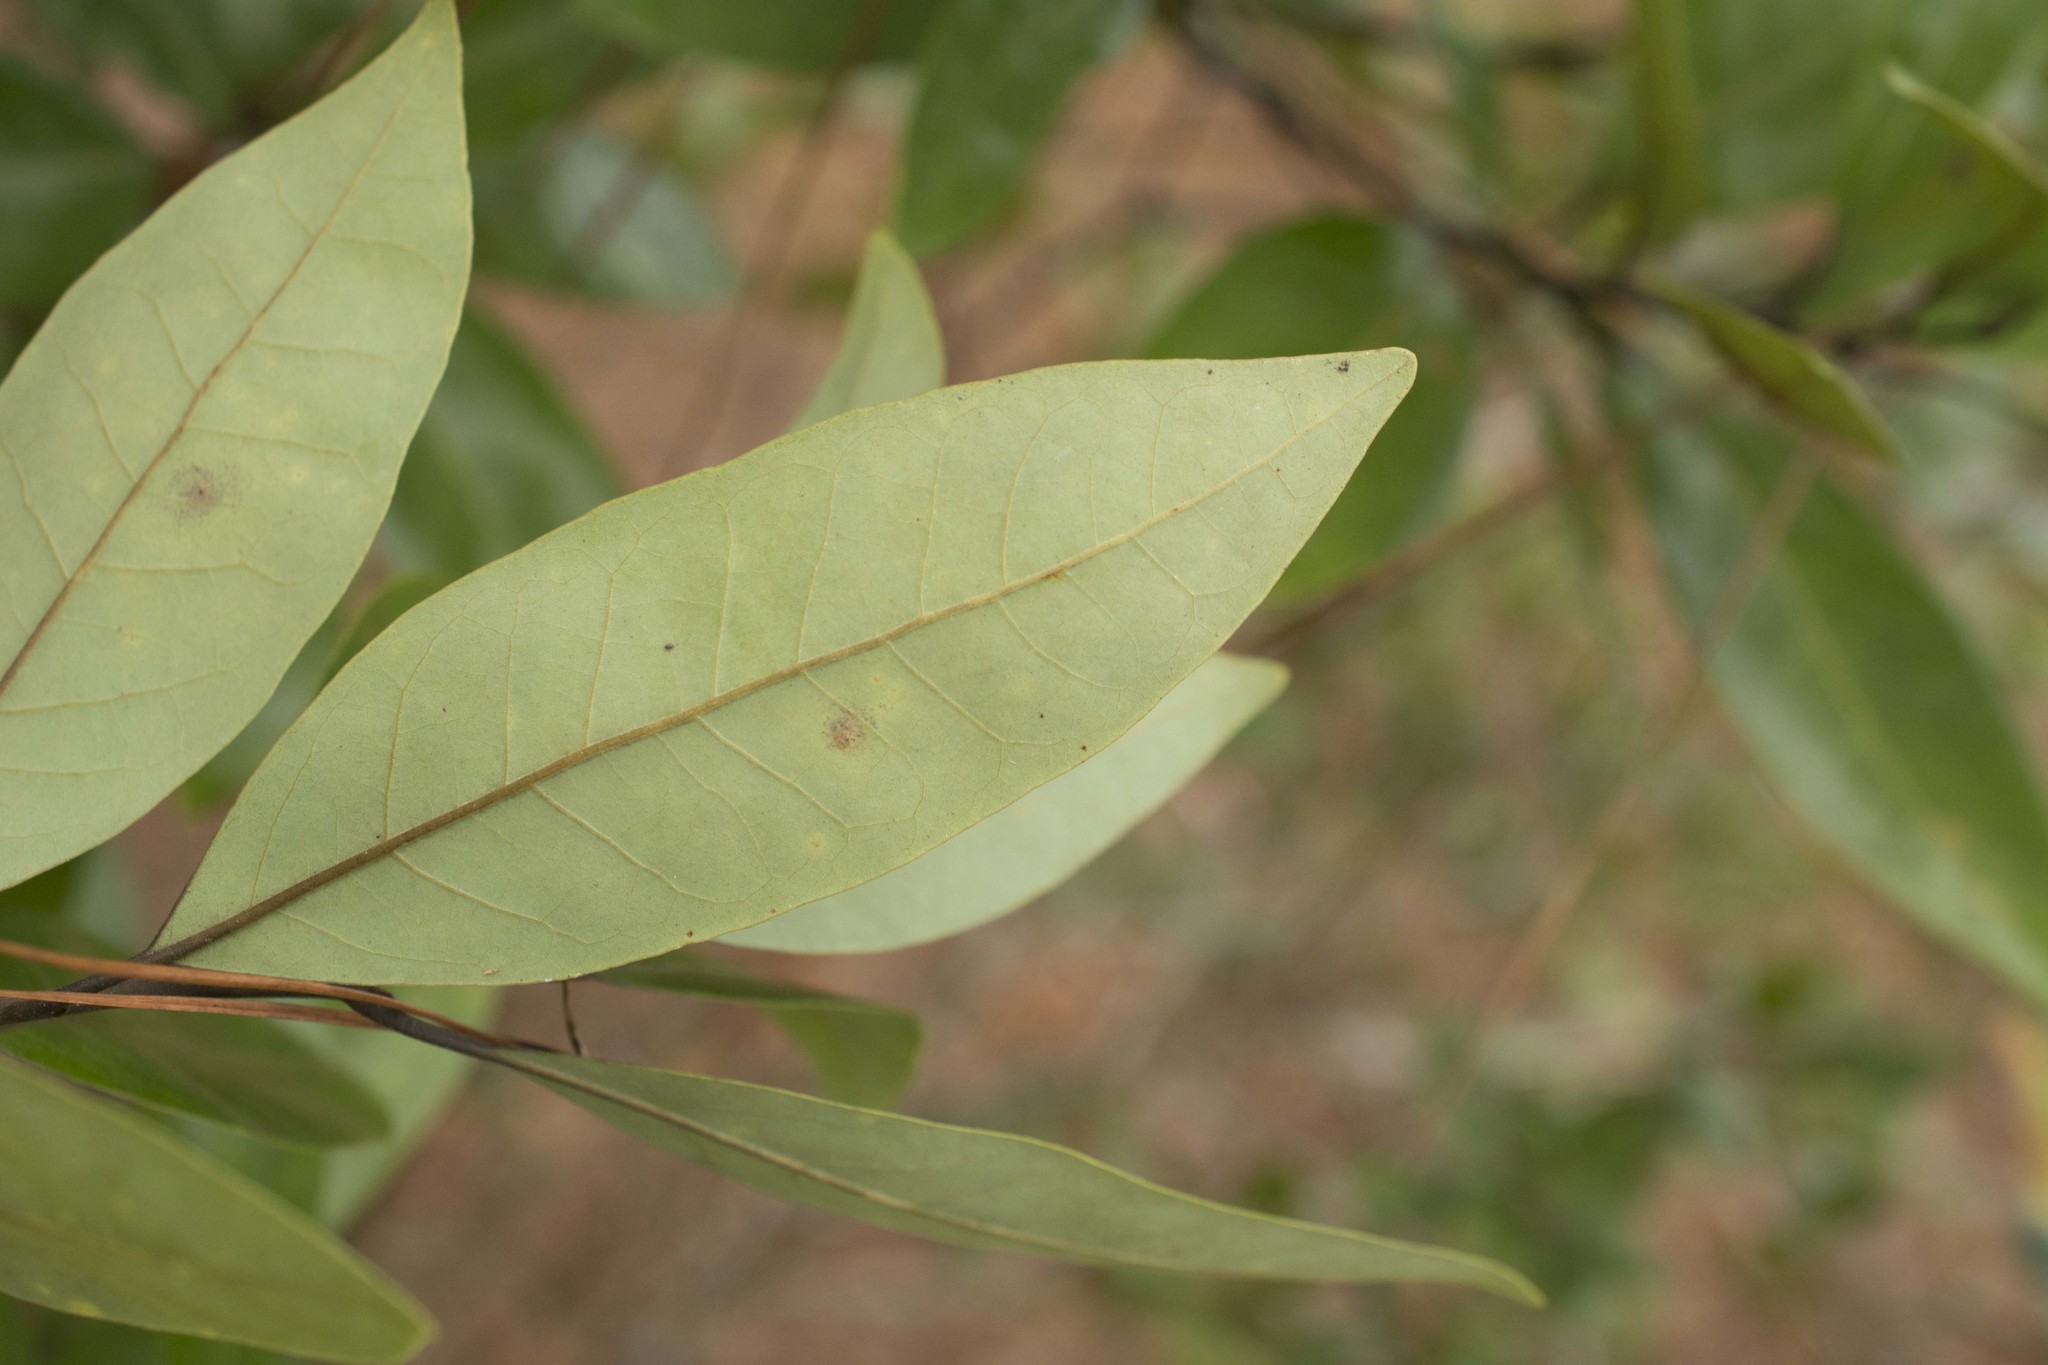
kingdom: Plantae
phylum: Tracheophyta
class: Magnoliopsida
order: Laurales
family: Lauraceae
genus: Persea
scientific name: Persea borbonia
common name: Redbay
